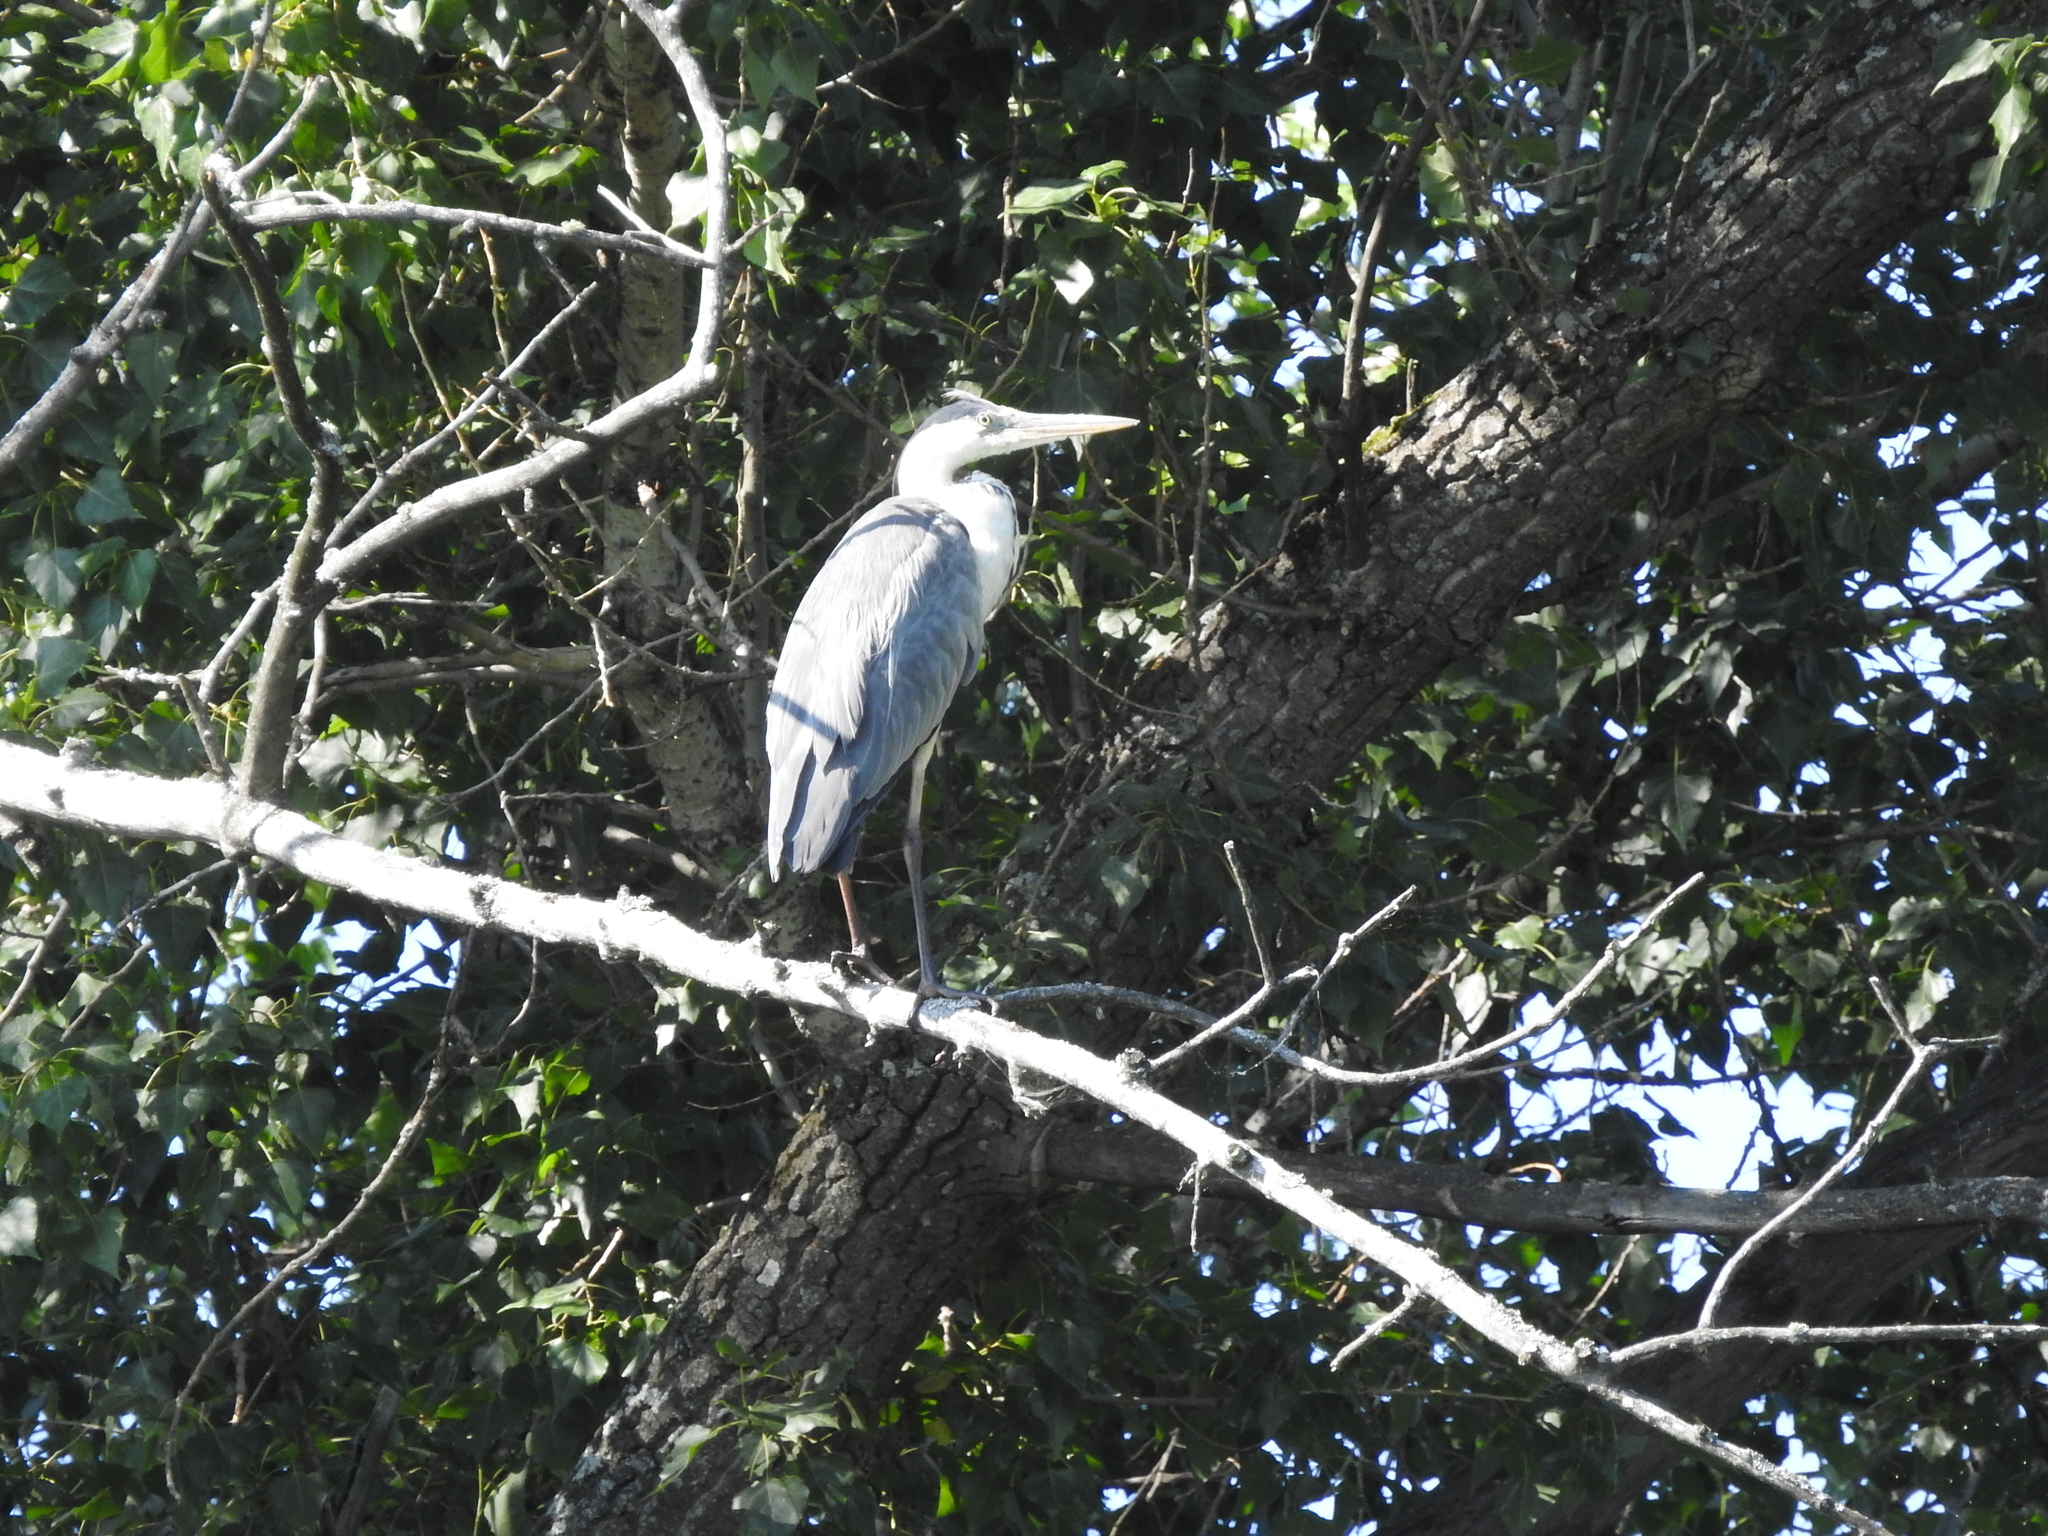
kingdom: Animalia
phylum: Chordata
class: Aves
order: Pelecaniformes
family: Ardeidae
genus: Ardea
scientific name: Ardea cinerea
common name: Grey heron
